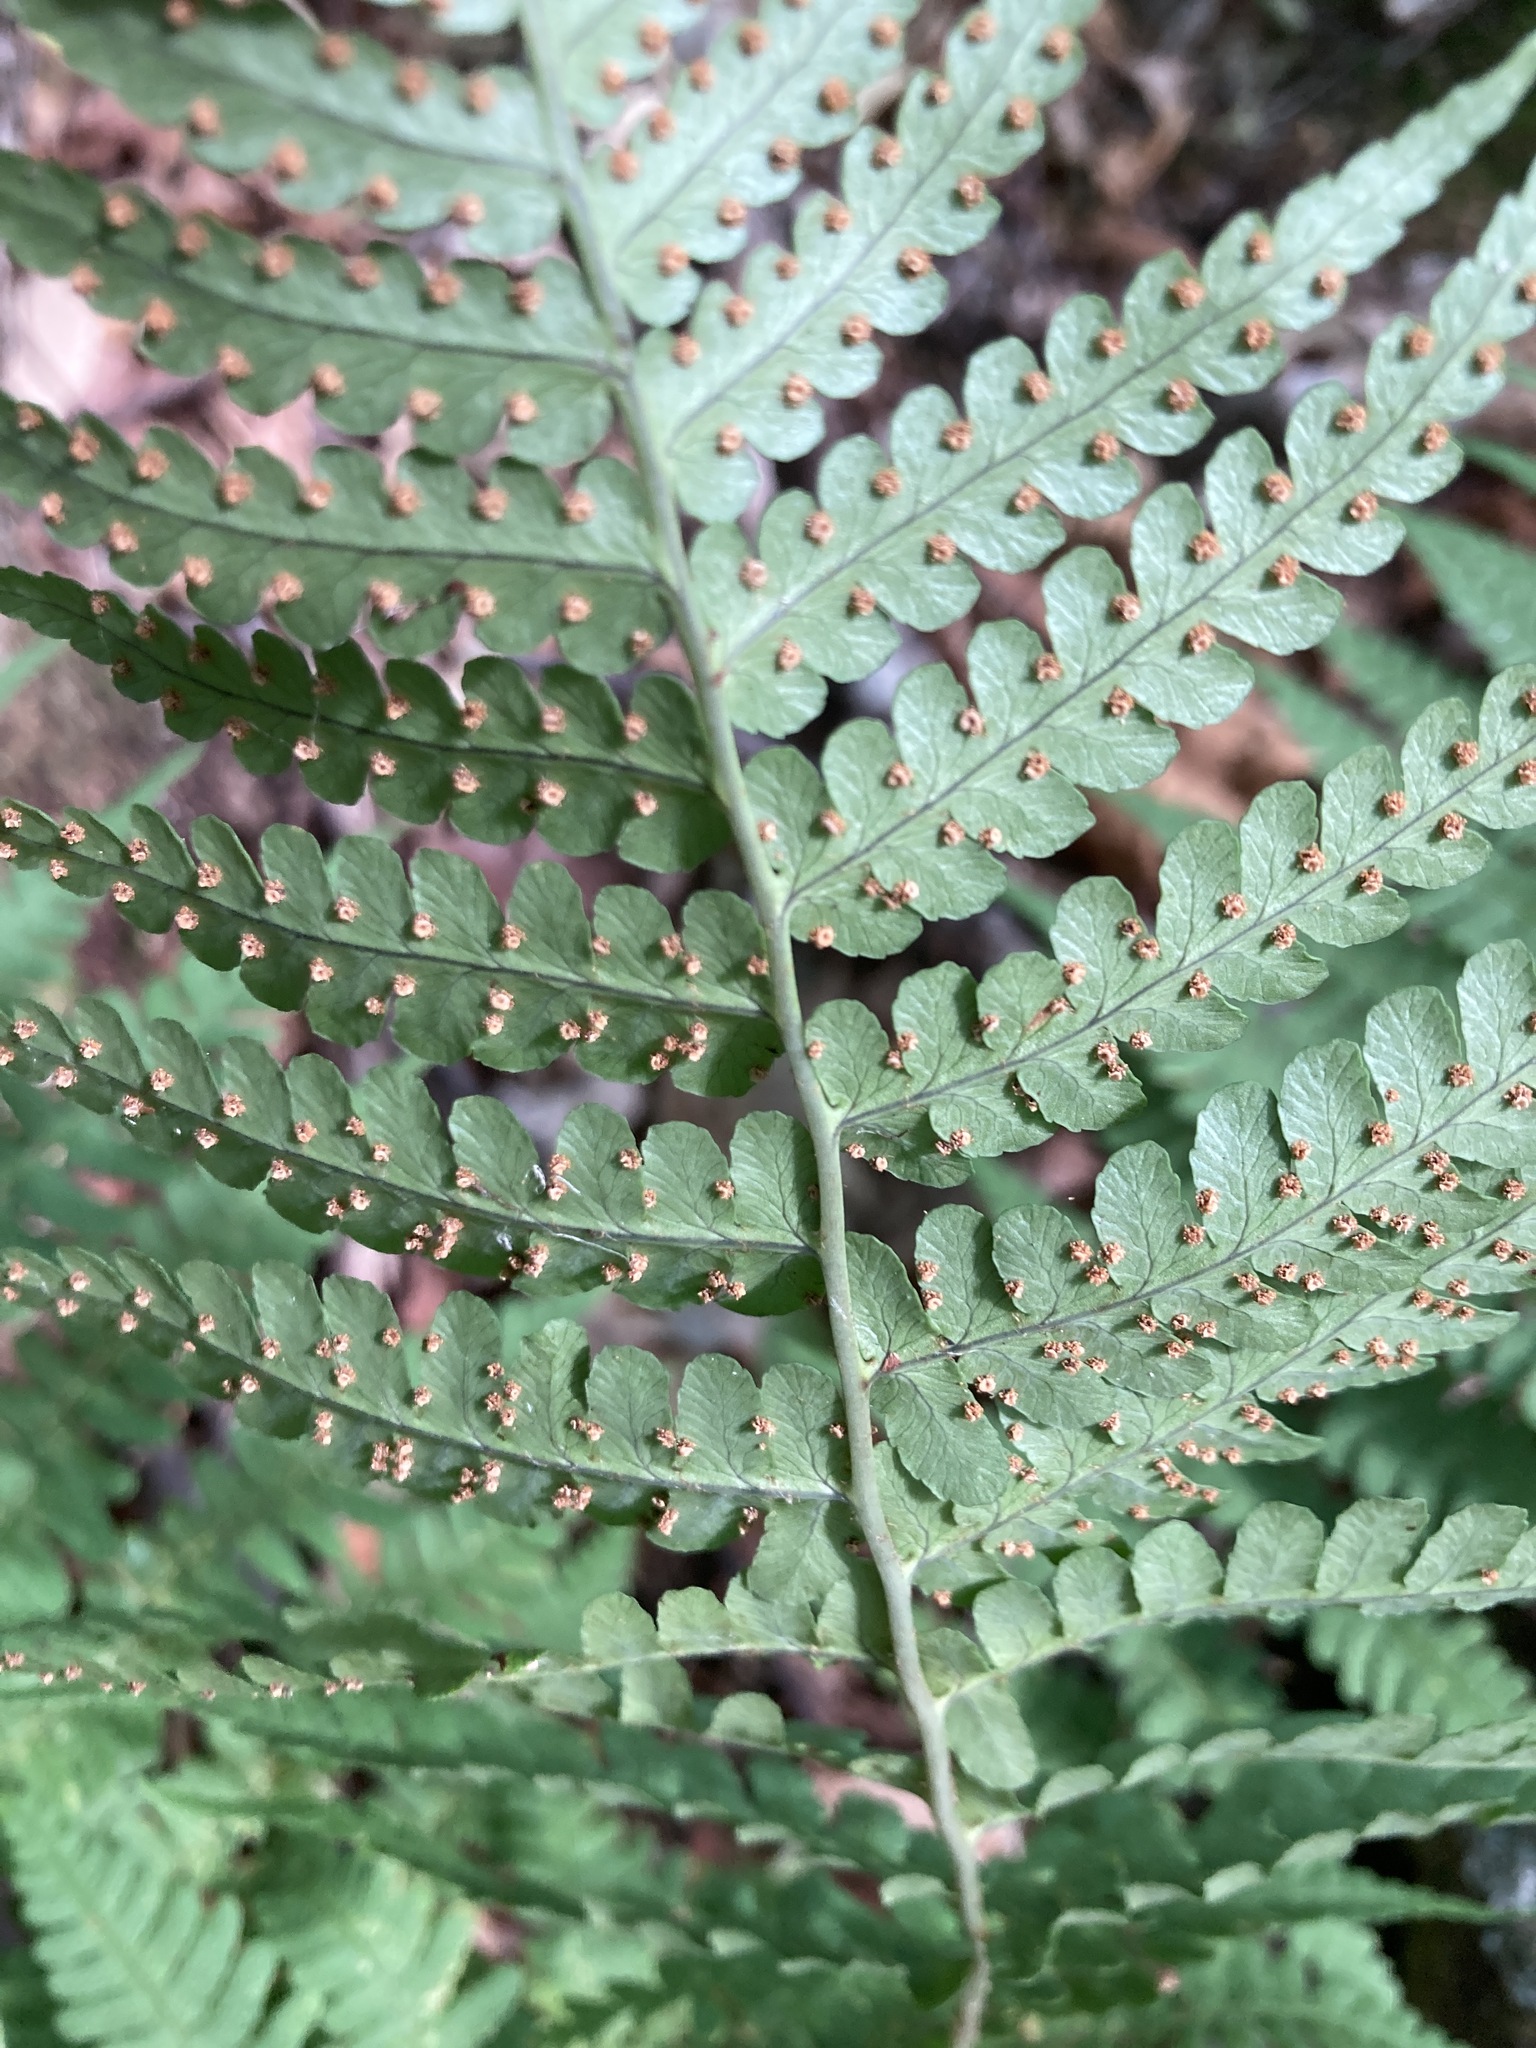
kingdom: Plantae
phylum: Tracheophyta
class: Polypodiopsida
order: Polypodiales
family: Dryopteridaceae
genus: Dryopteris
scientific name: Dryopteris marginalis
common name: Marginal wood fern
